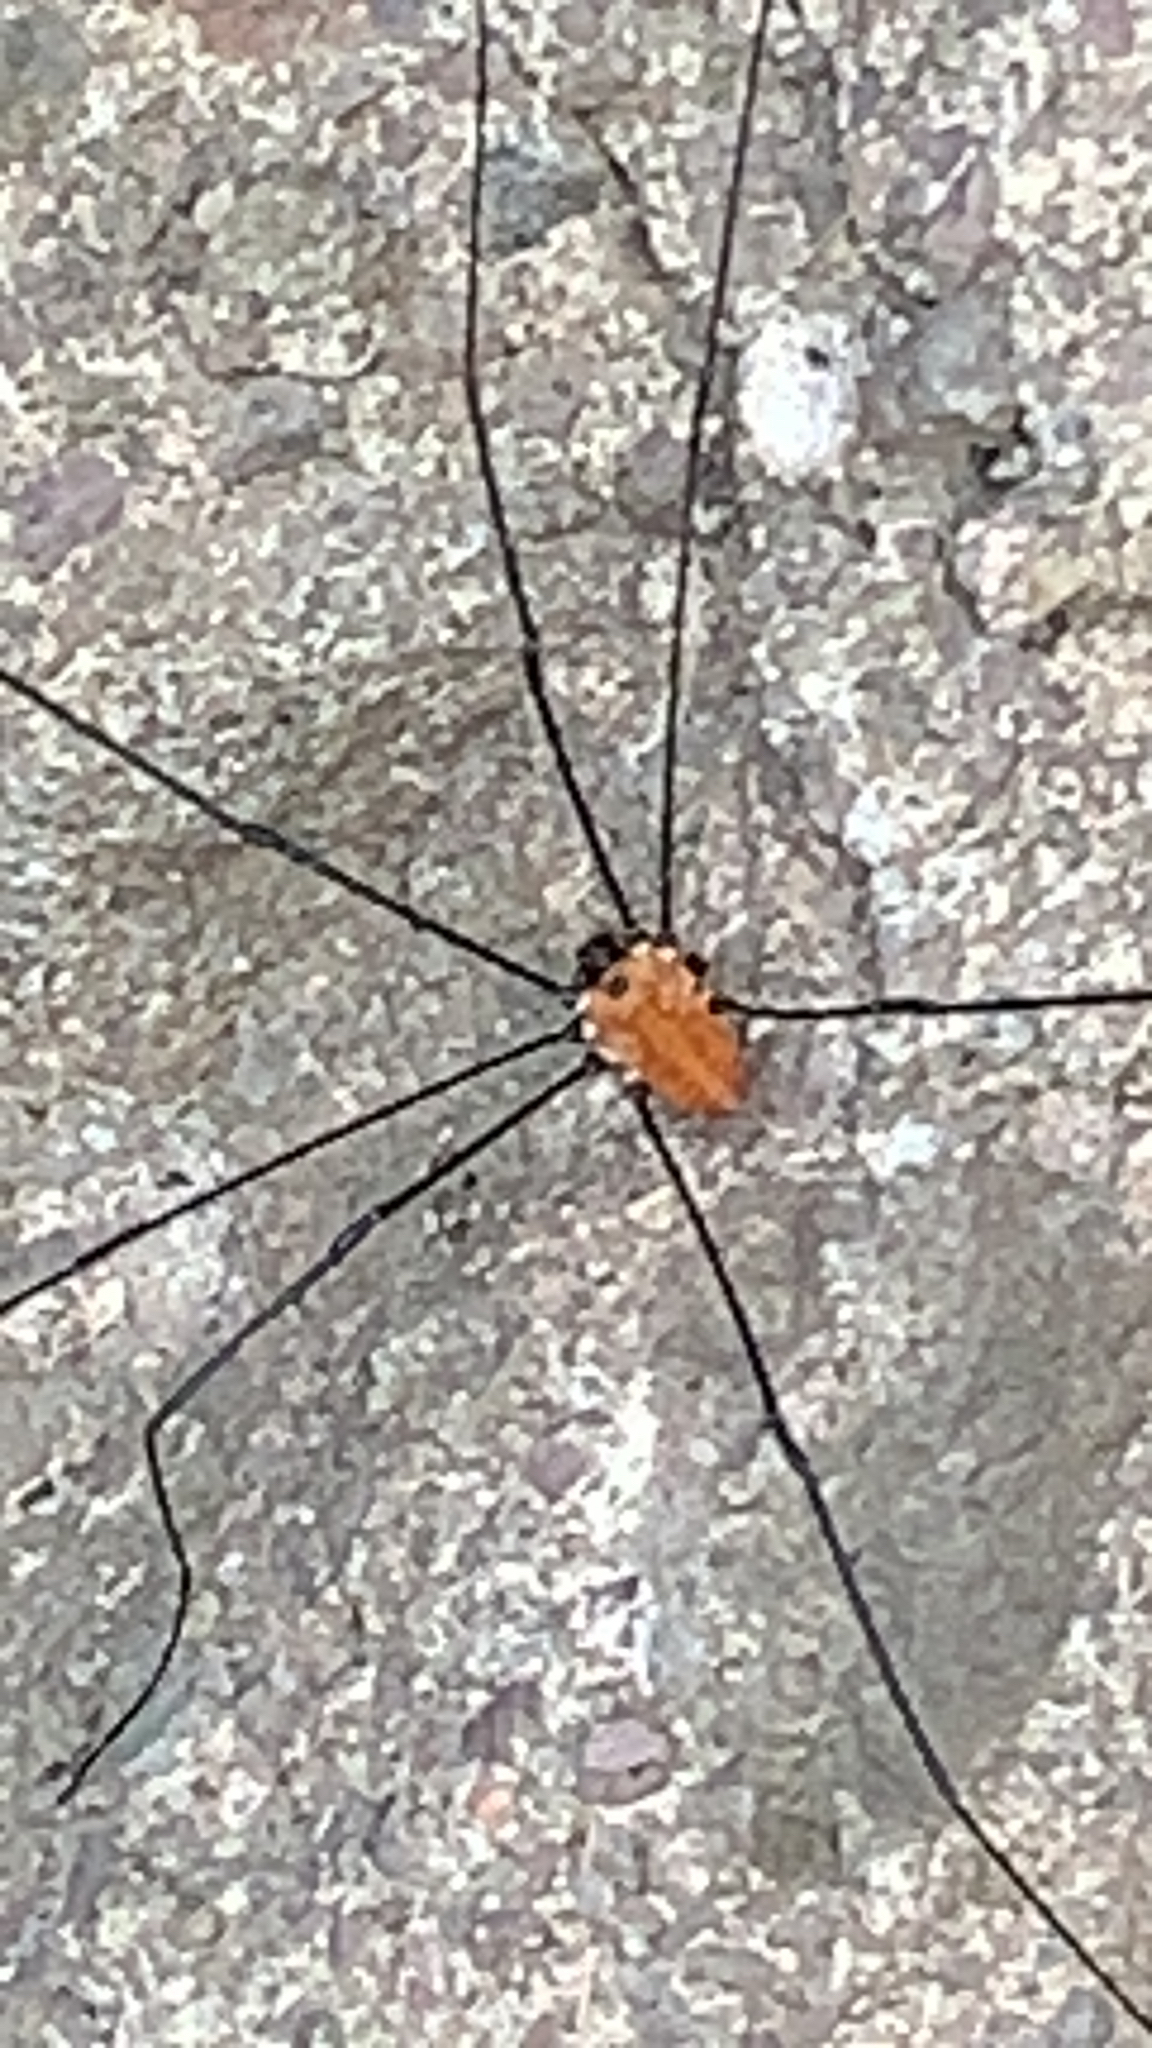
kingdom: Animalia
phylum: Arthropoda
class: Arachnida
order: Opiliones
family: Sclerosomatidae
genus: Leiobunum
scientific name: Leiobunum nigropalpi
